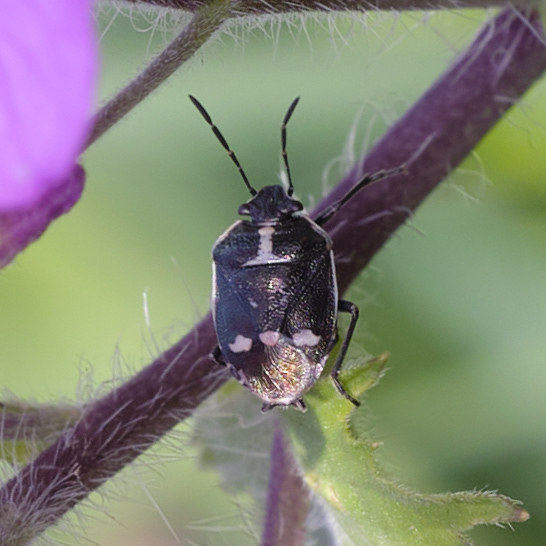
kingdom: Animalia
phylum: Arthropoda
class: Insecta
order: Hemiptera
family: Pentatomidae
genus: Eurydema
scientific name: Eurydema oleracea
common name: Cabbage bug
